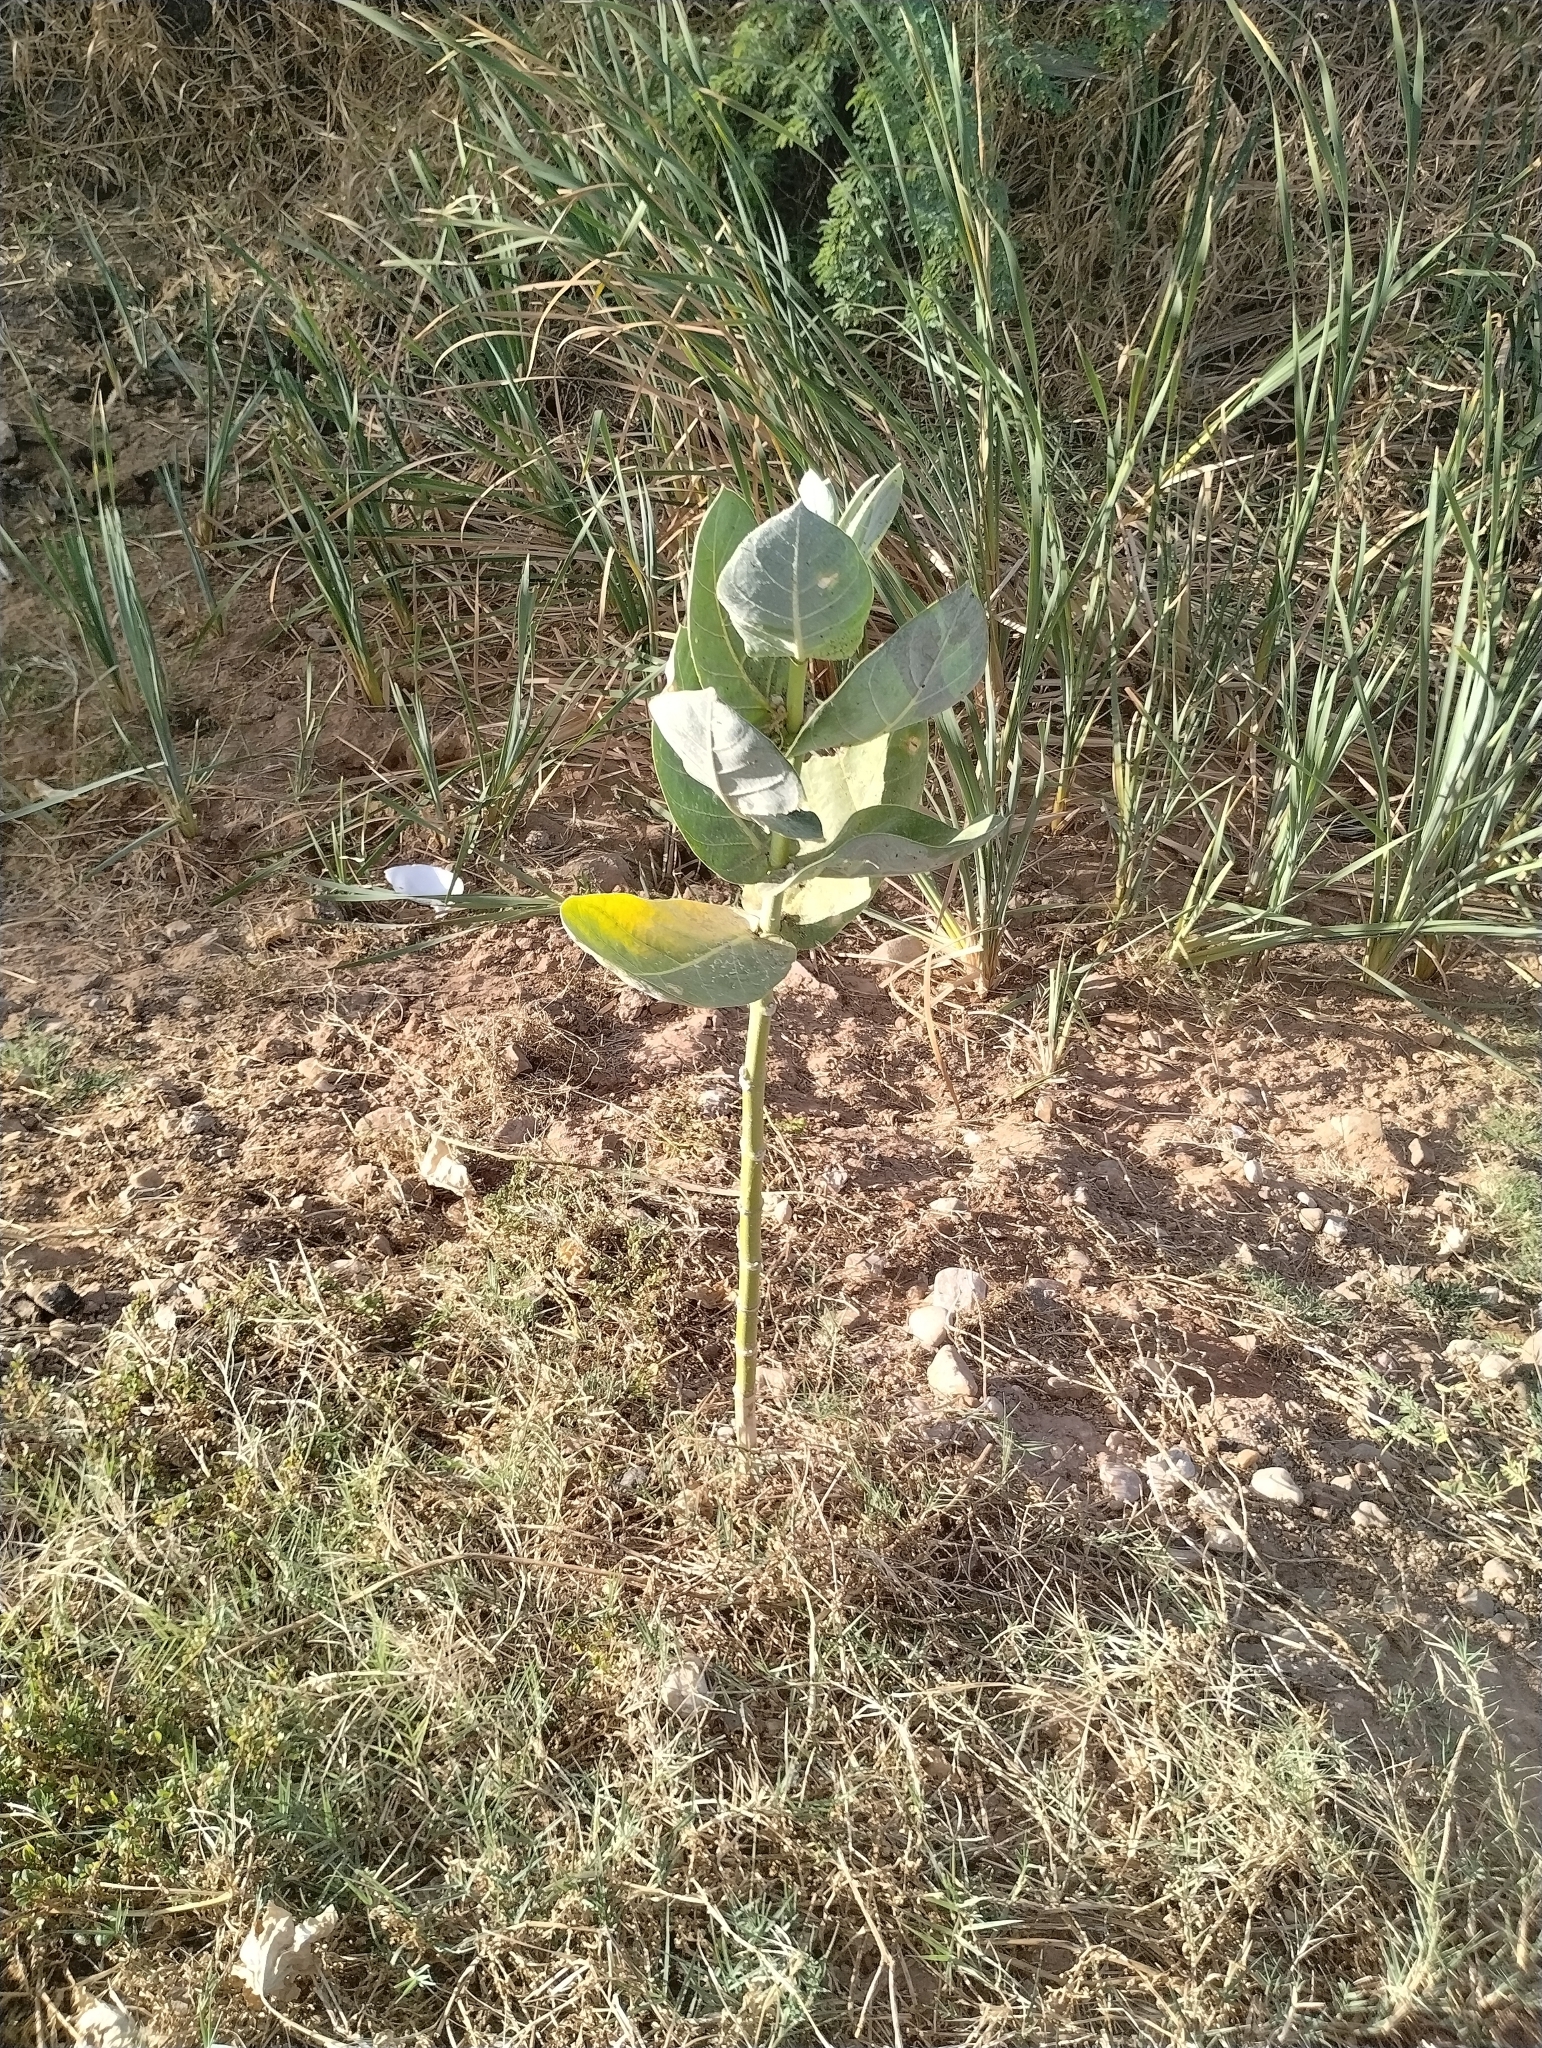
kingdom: Plantae
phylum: Tracheophyta
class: Magnoliopsida
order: Gentianales
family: Apocynaceae
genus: Calotropis
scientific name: Calotropis procera
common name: Roostertree
